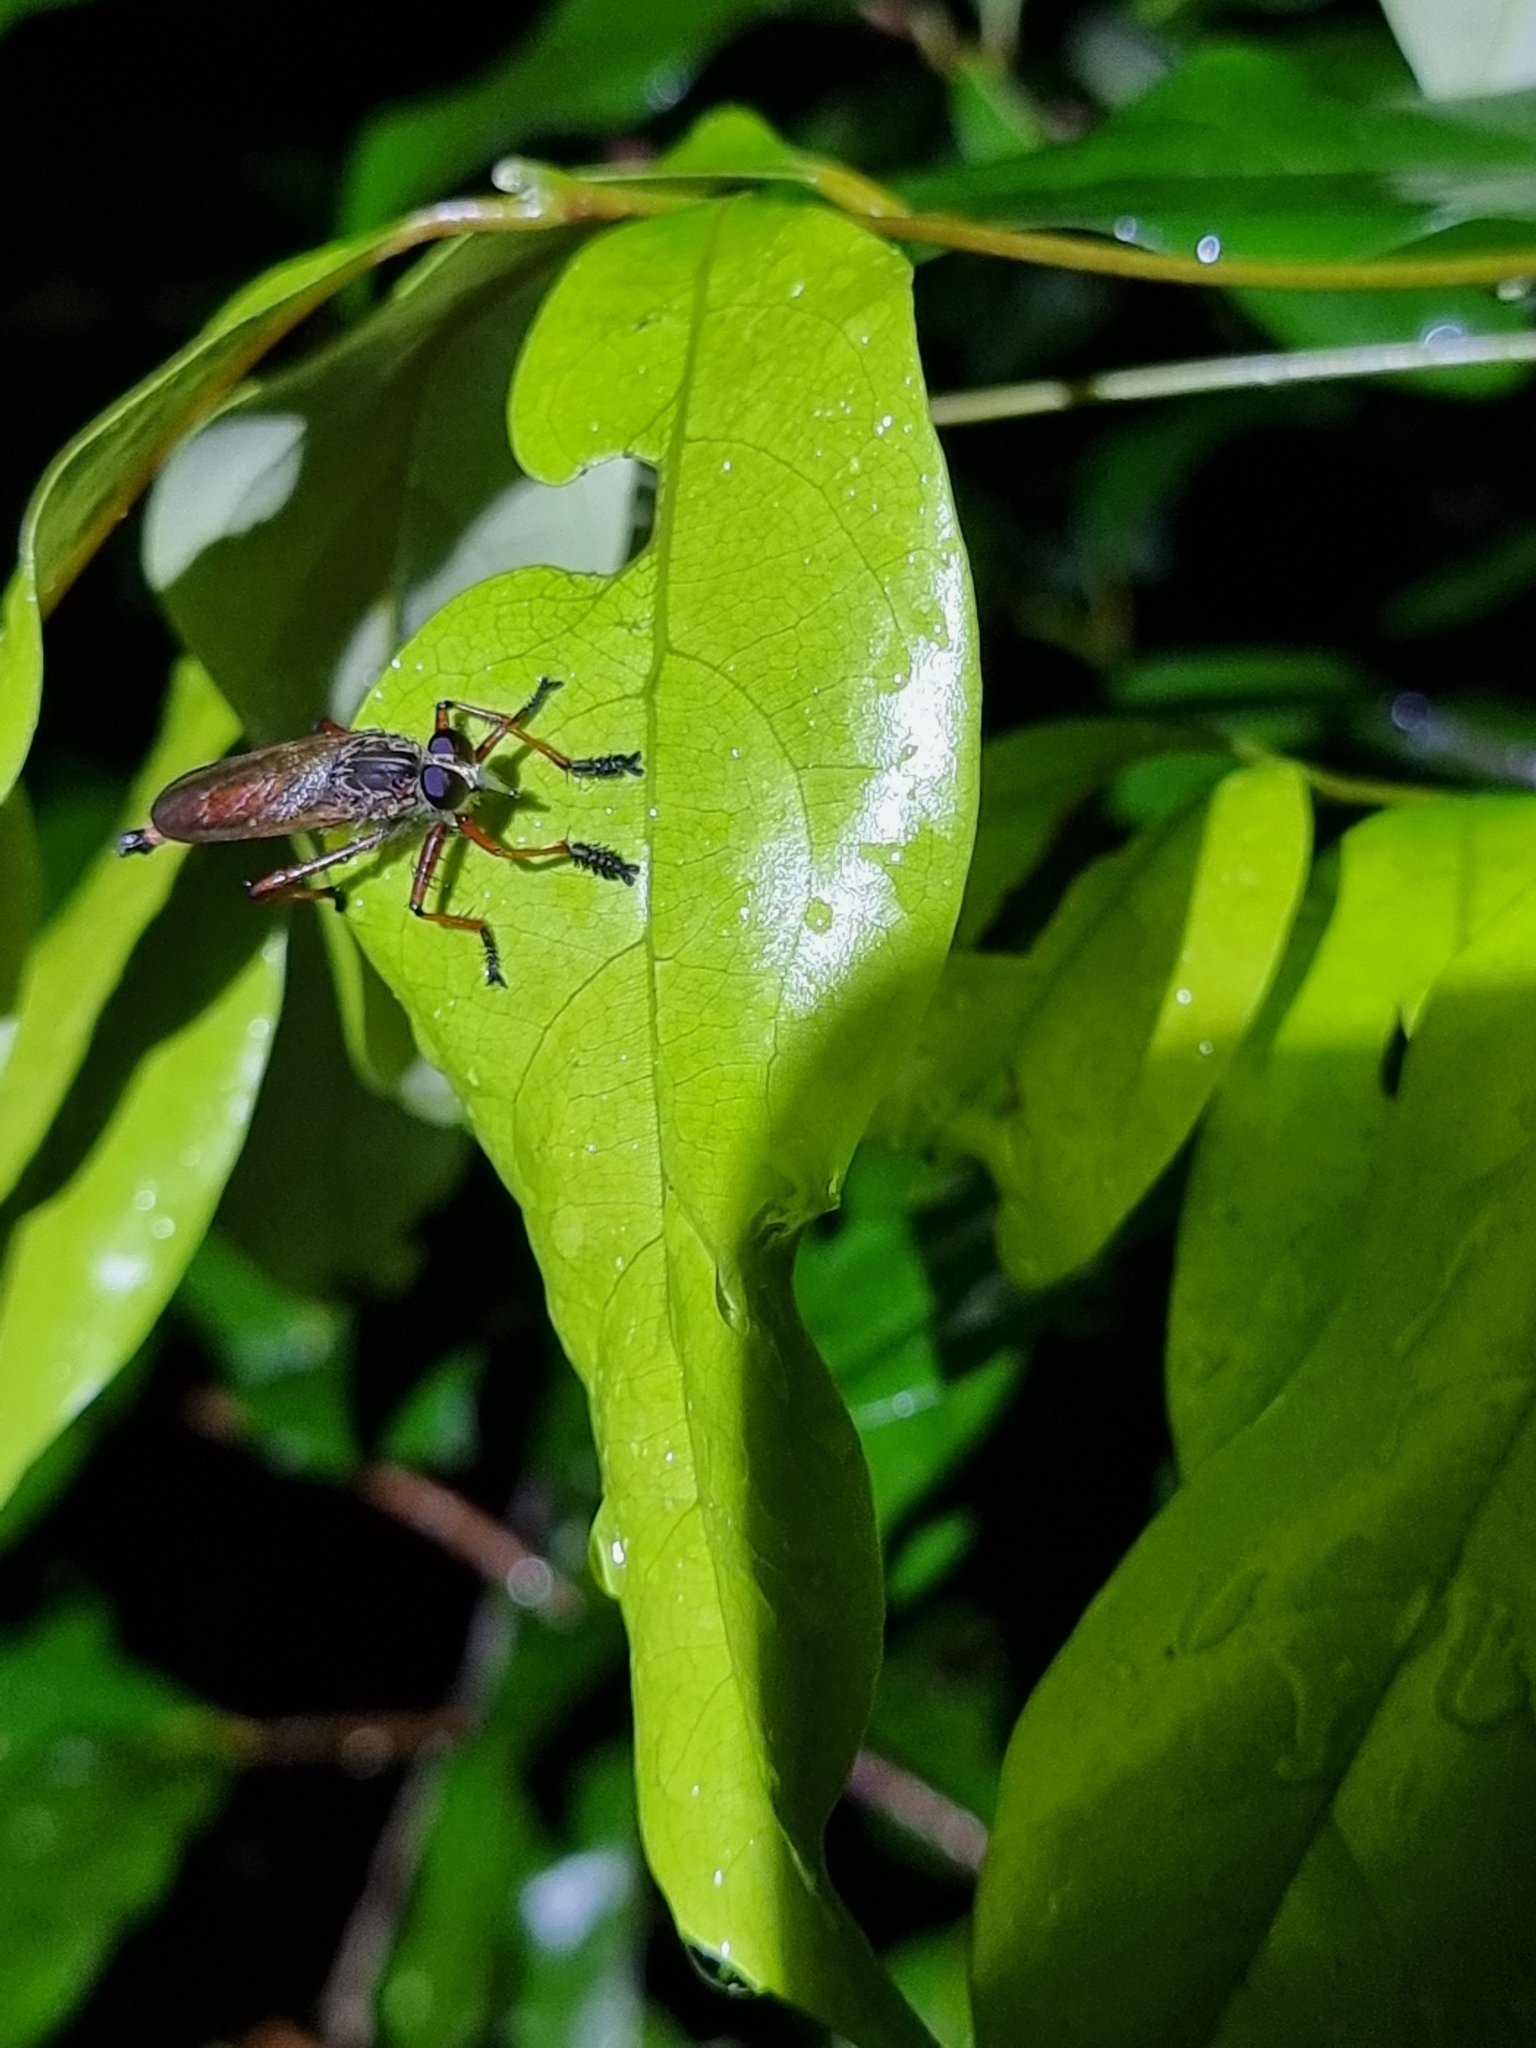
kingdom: Animalia
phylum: Arthropoda
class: Insecta
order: Diptera
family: Asilidae
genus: Colepia
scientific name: Colepia cultripes
